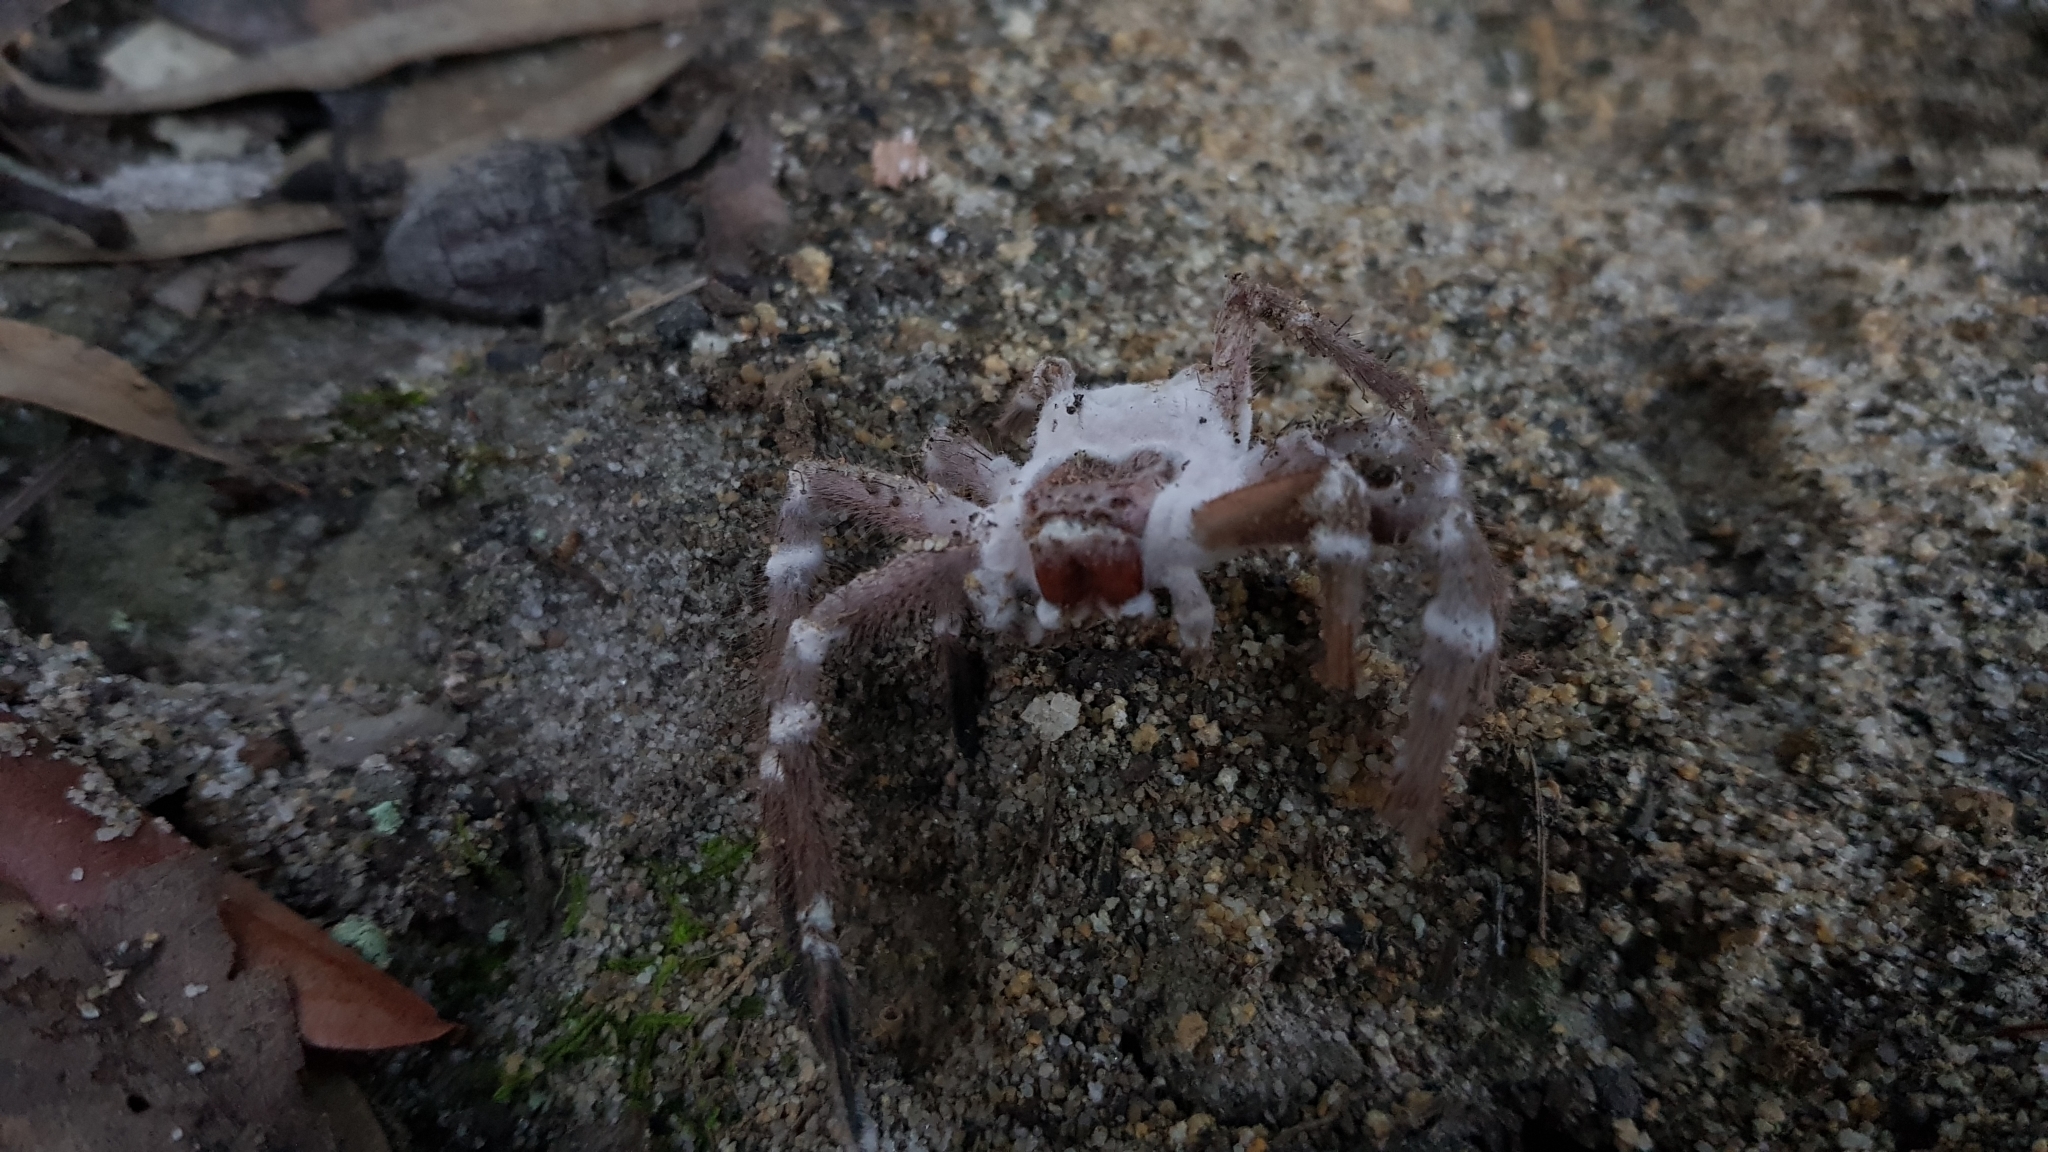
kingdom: Animalia
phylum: Arthropoda
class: Arachnida
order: Araneae
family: Sparassidae
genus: Isopeda
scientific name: Isopeda villosa
